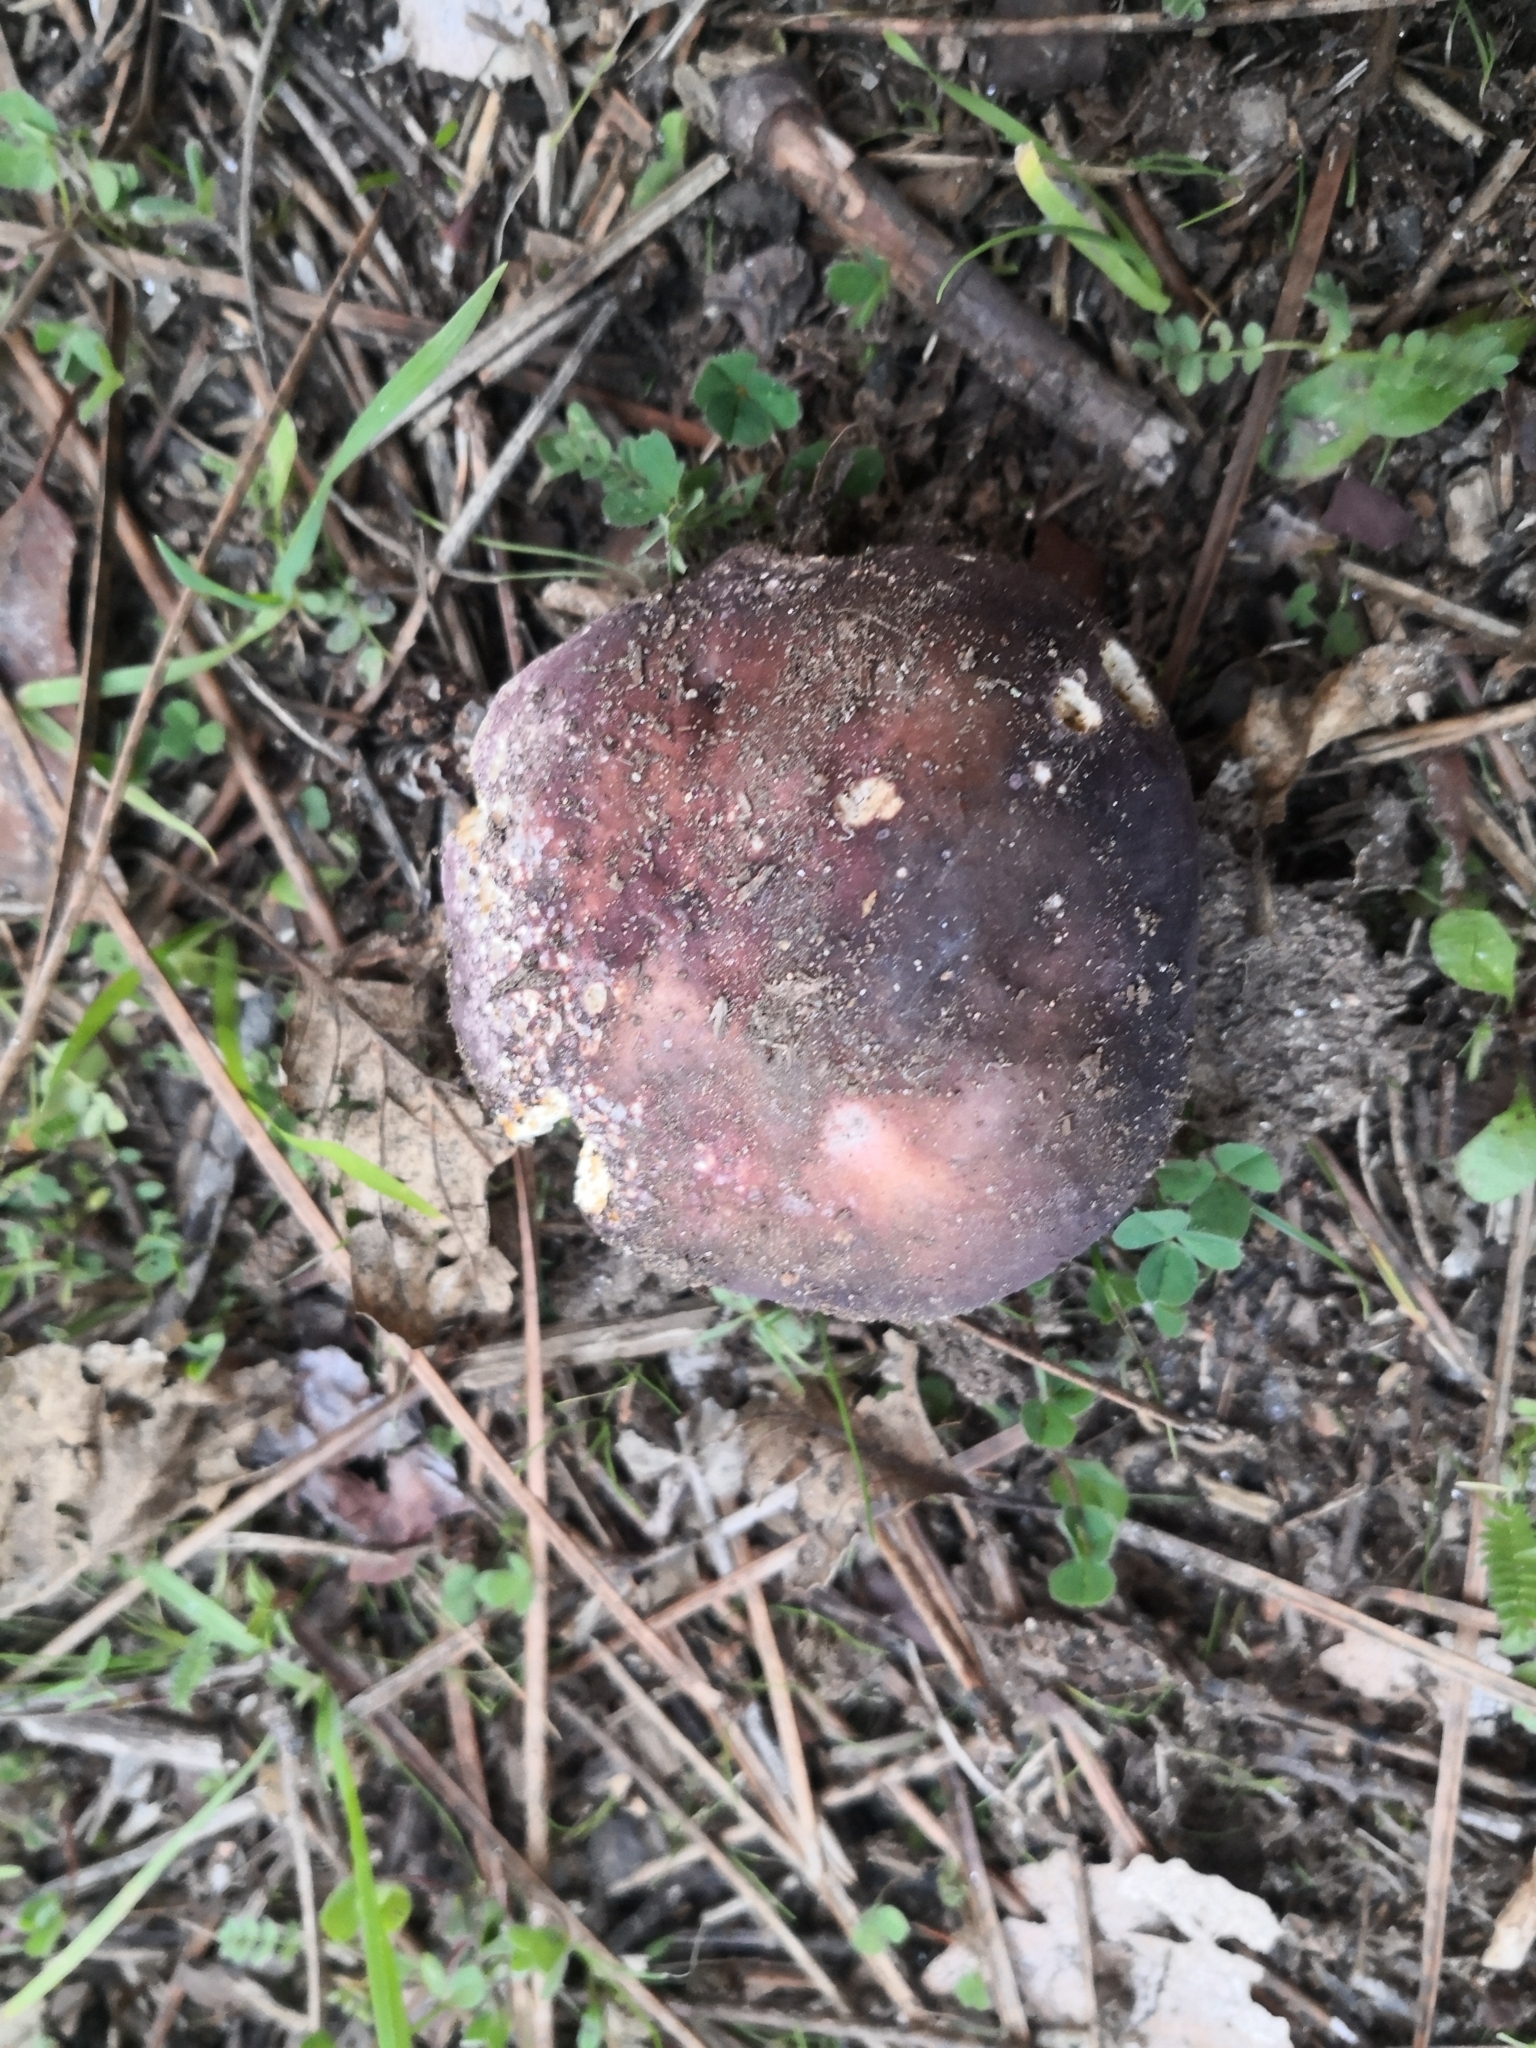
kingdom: Fungi
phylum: Basidiomycota
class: Agaricomycetes
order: Russulales
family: Russulaceae
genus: Russula
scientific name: Russula xerampelina
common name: Crab brittlegill
